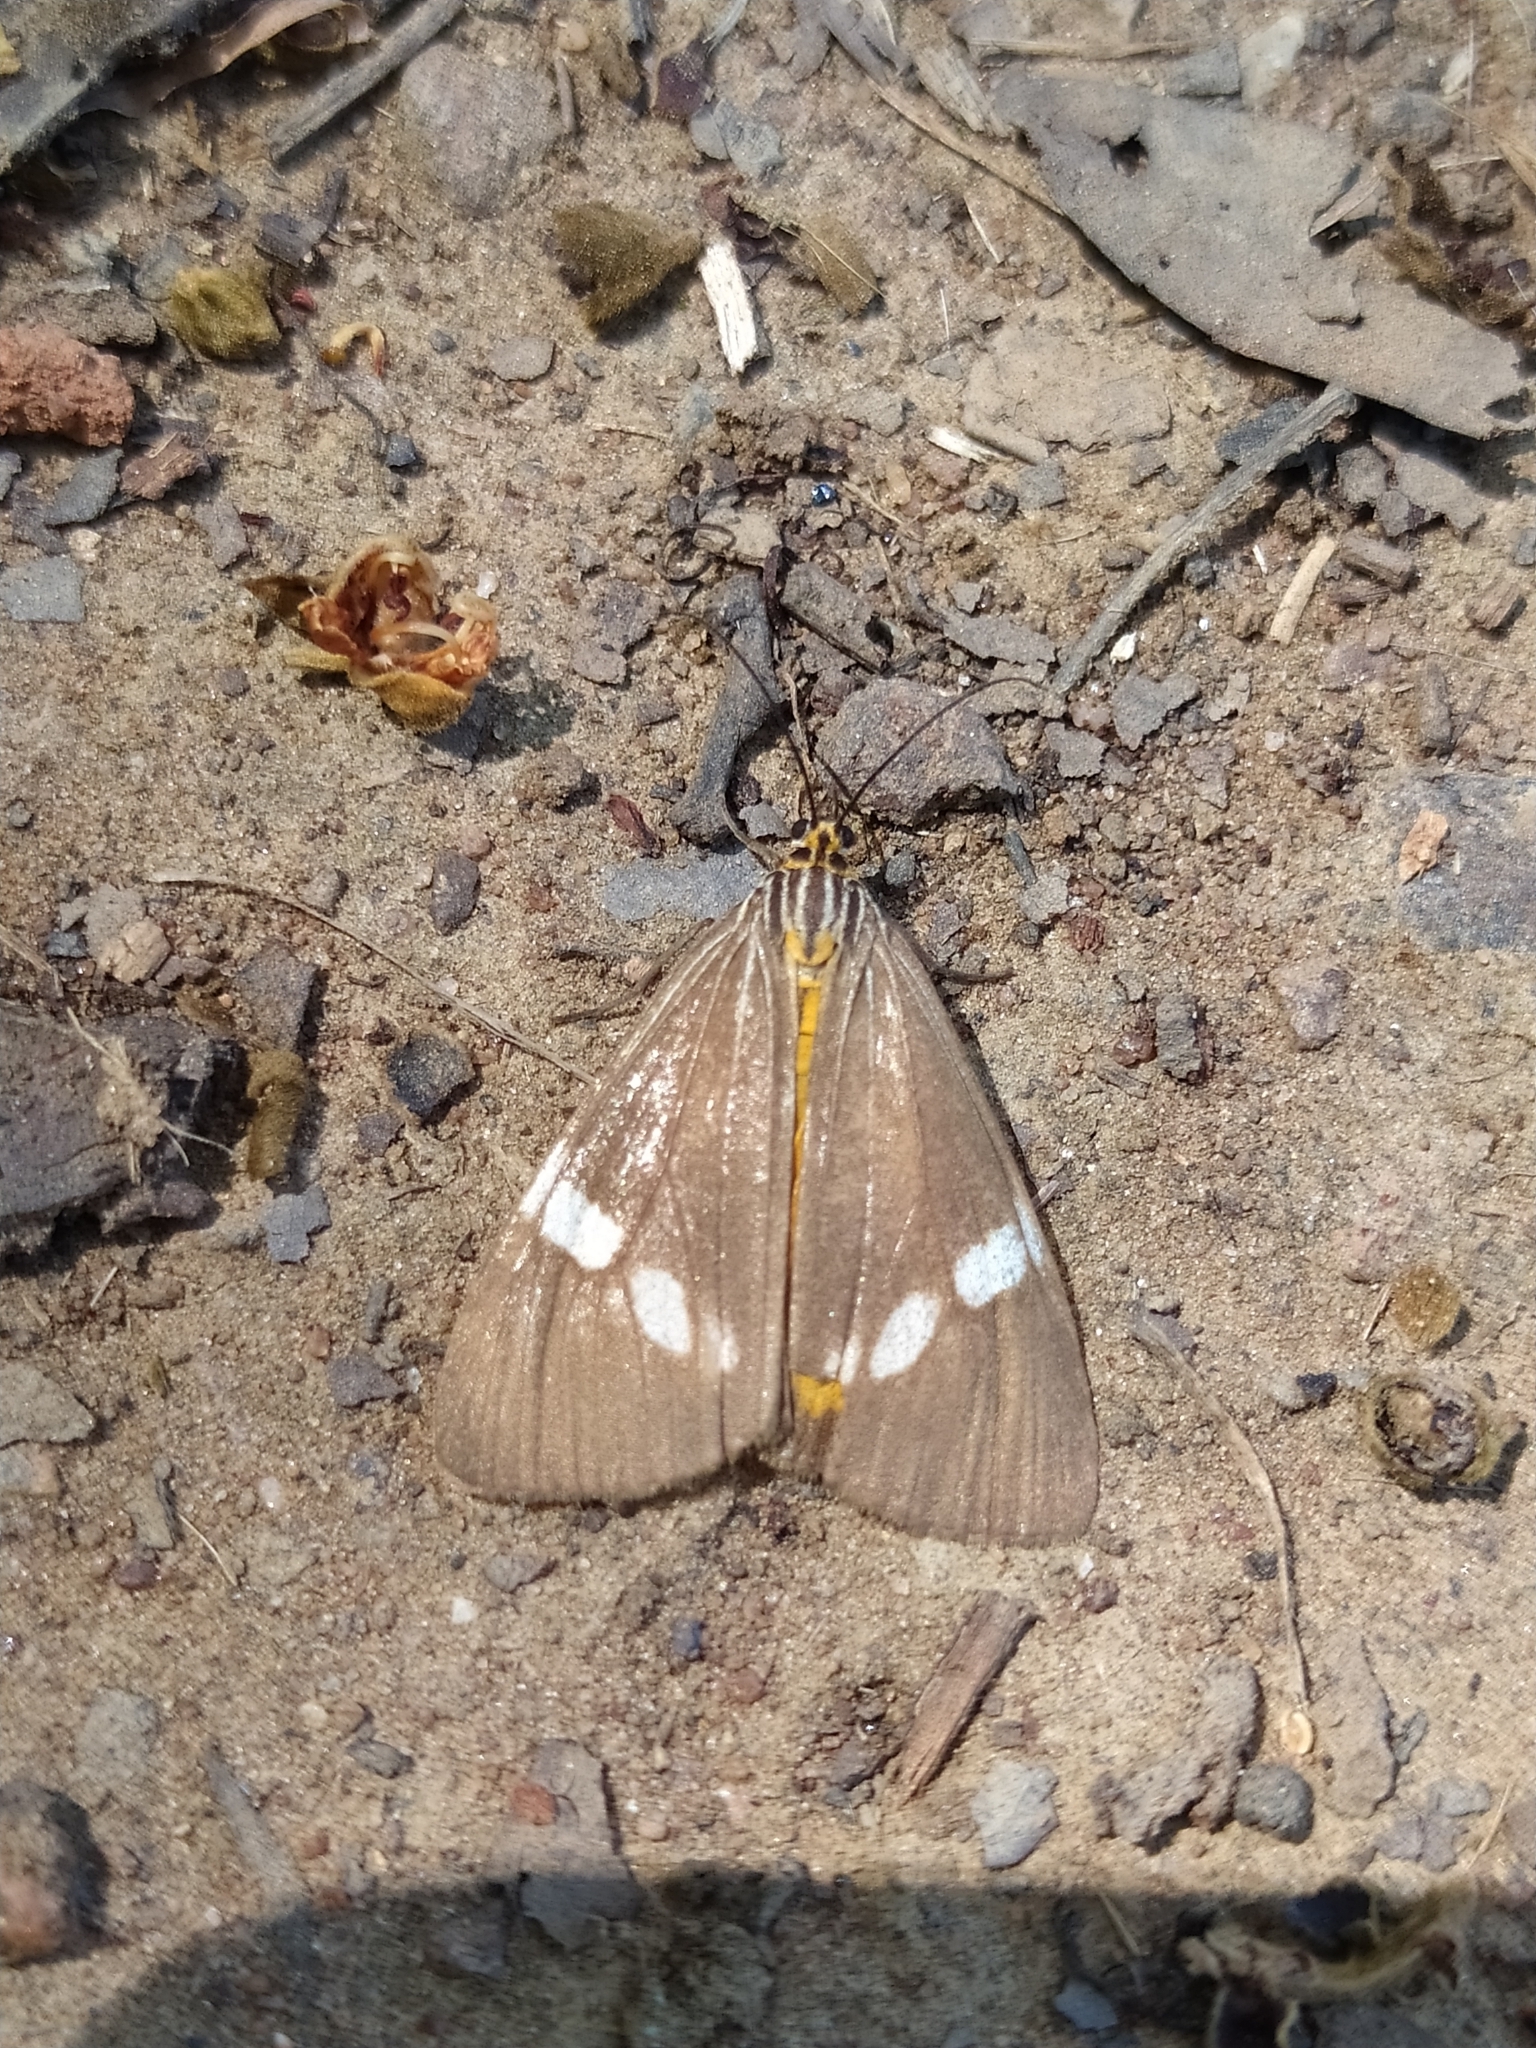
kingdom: Animalia
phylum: Arthropoda
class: Insecta
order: Lepidoptera
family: Erebidae
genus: Secusio
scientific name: Secusio strigata
